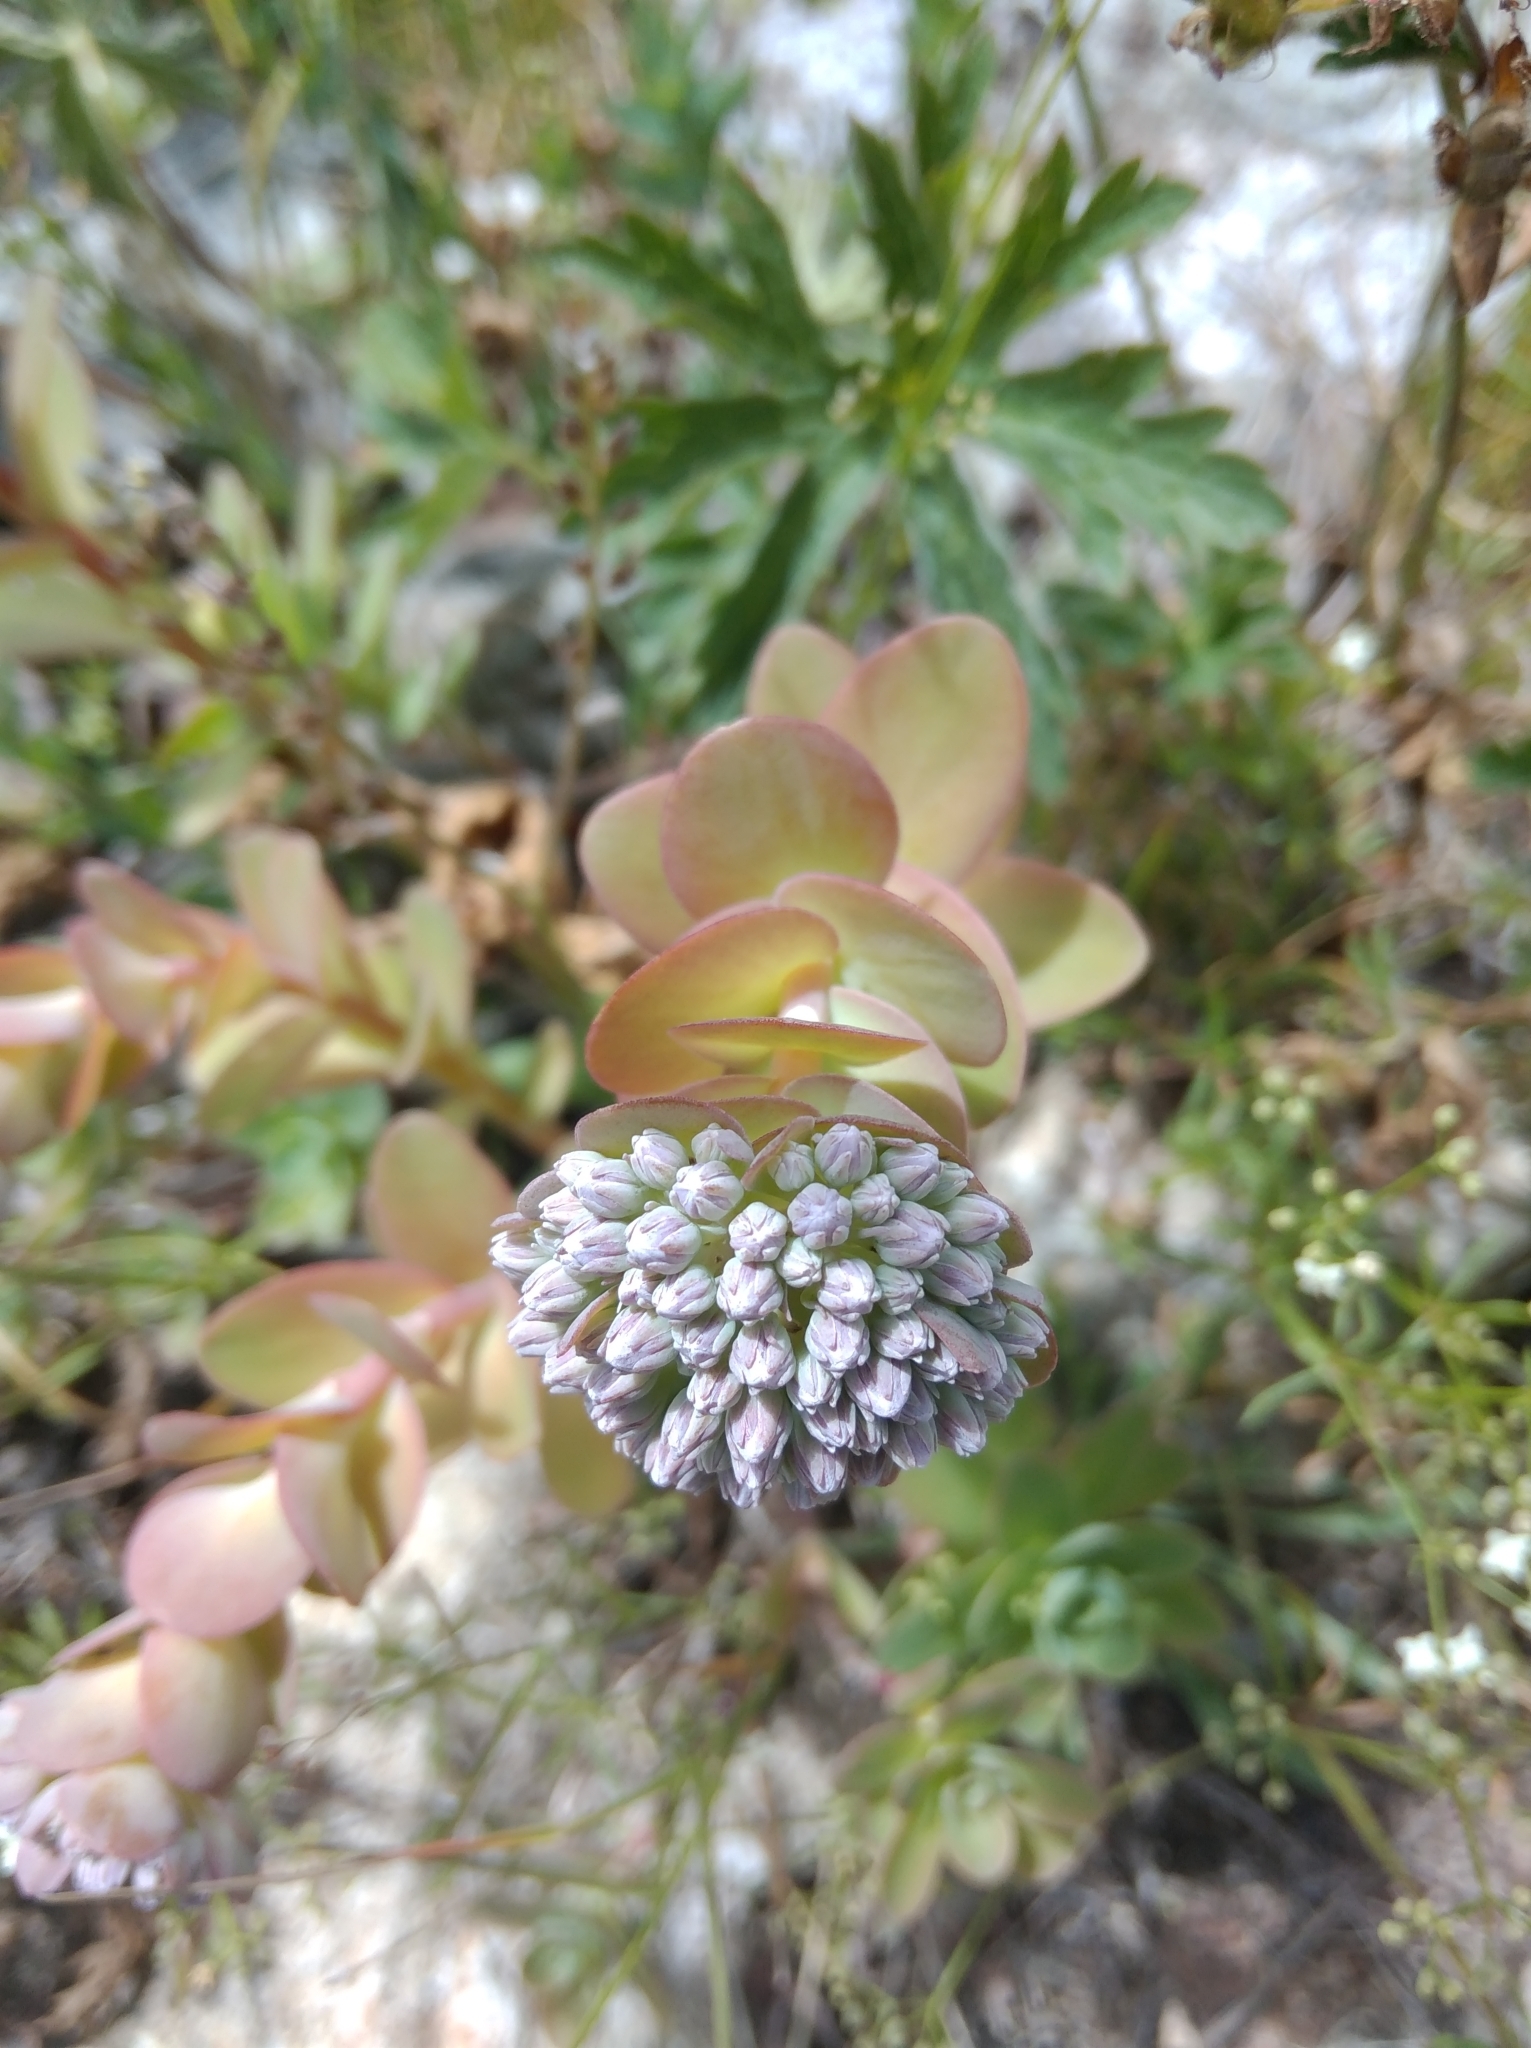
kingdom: Plantae
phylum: Tracheophyta
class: Magnoliopsida
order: Saxifragales
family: Crassulaceae
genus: Hylotelephium
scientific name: Hylotelephium anacampseros
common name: Love-restorer
